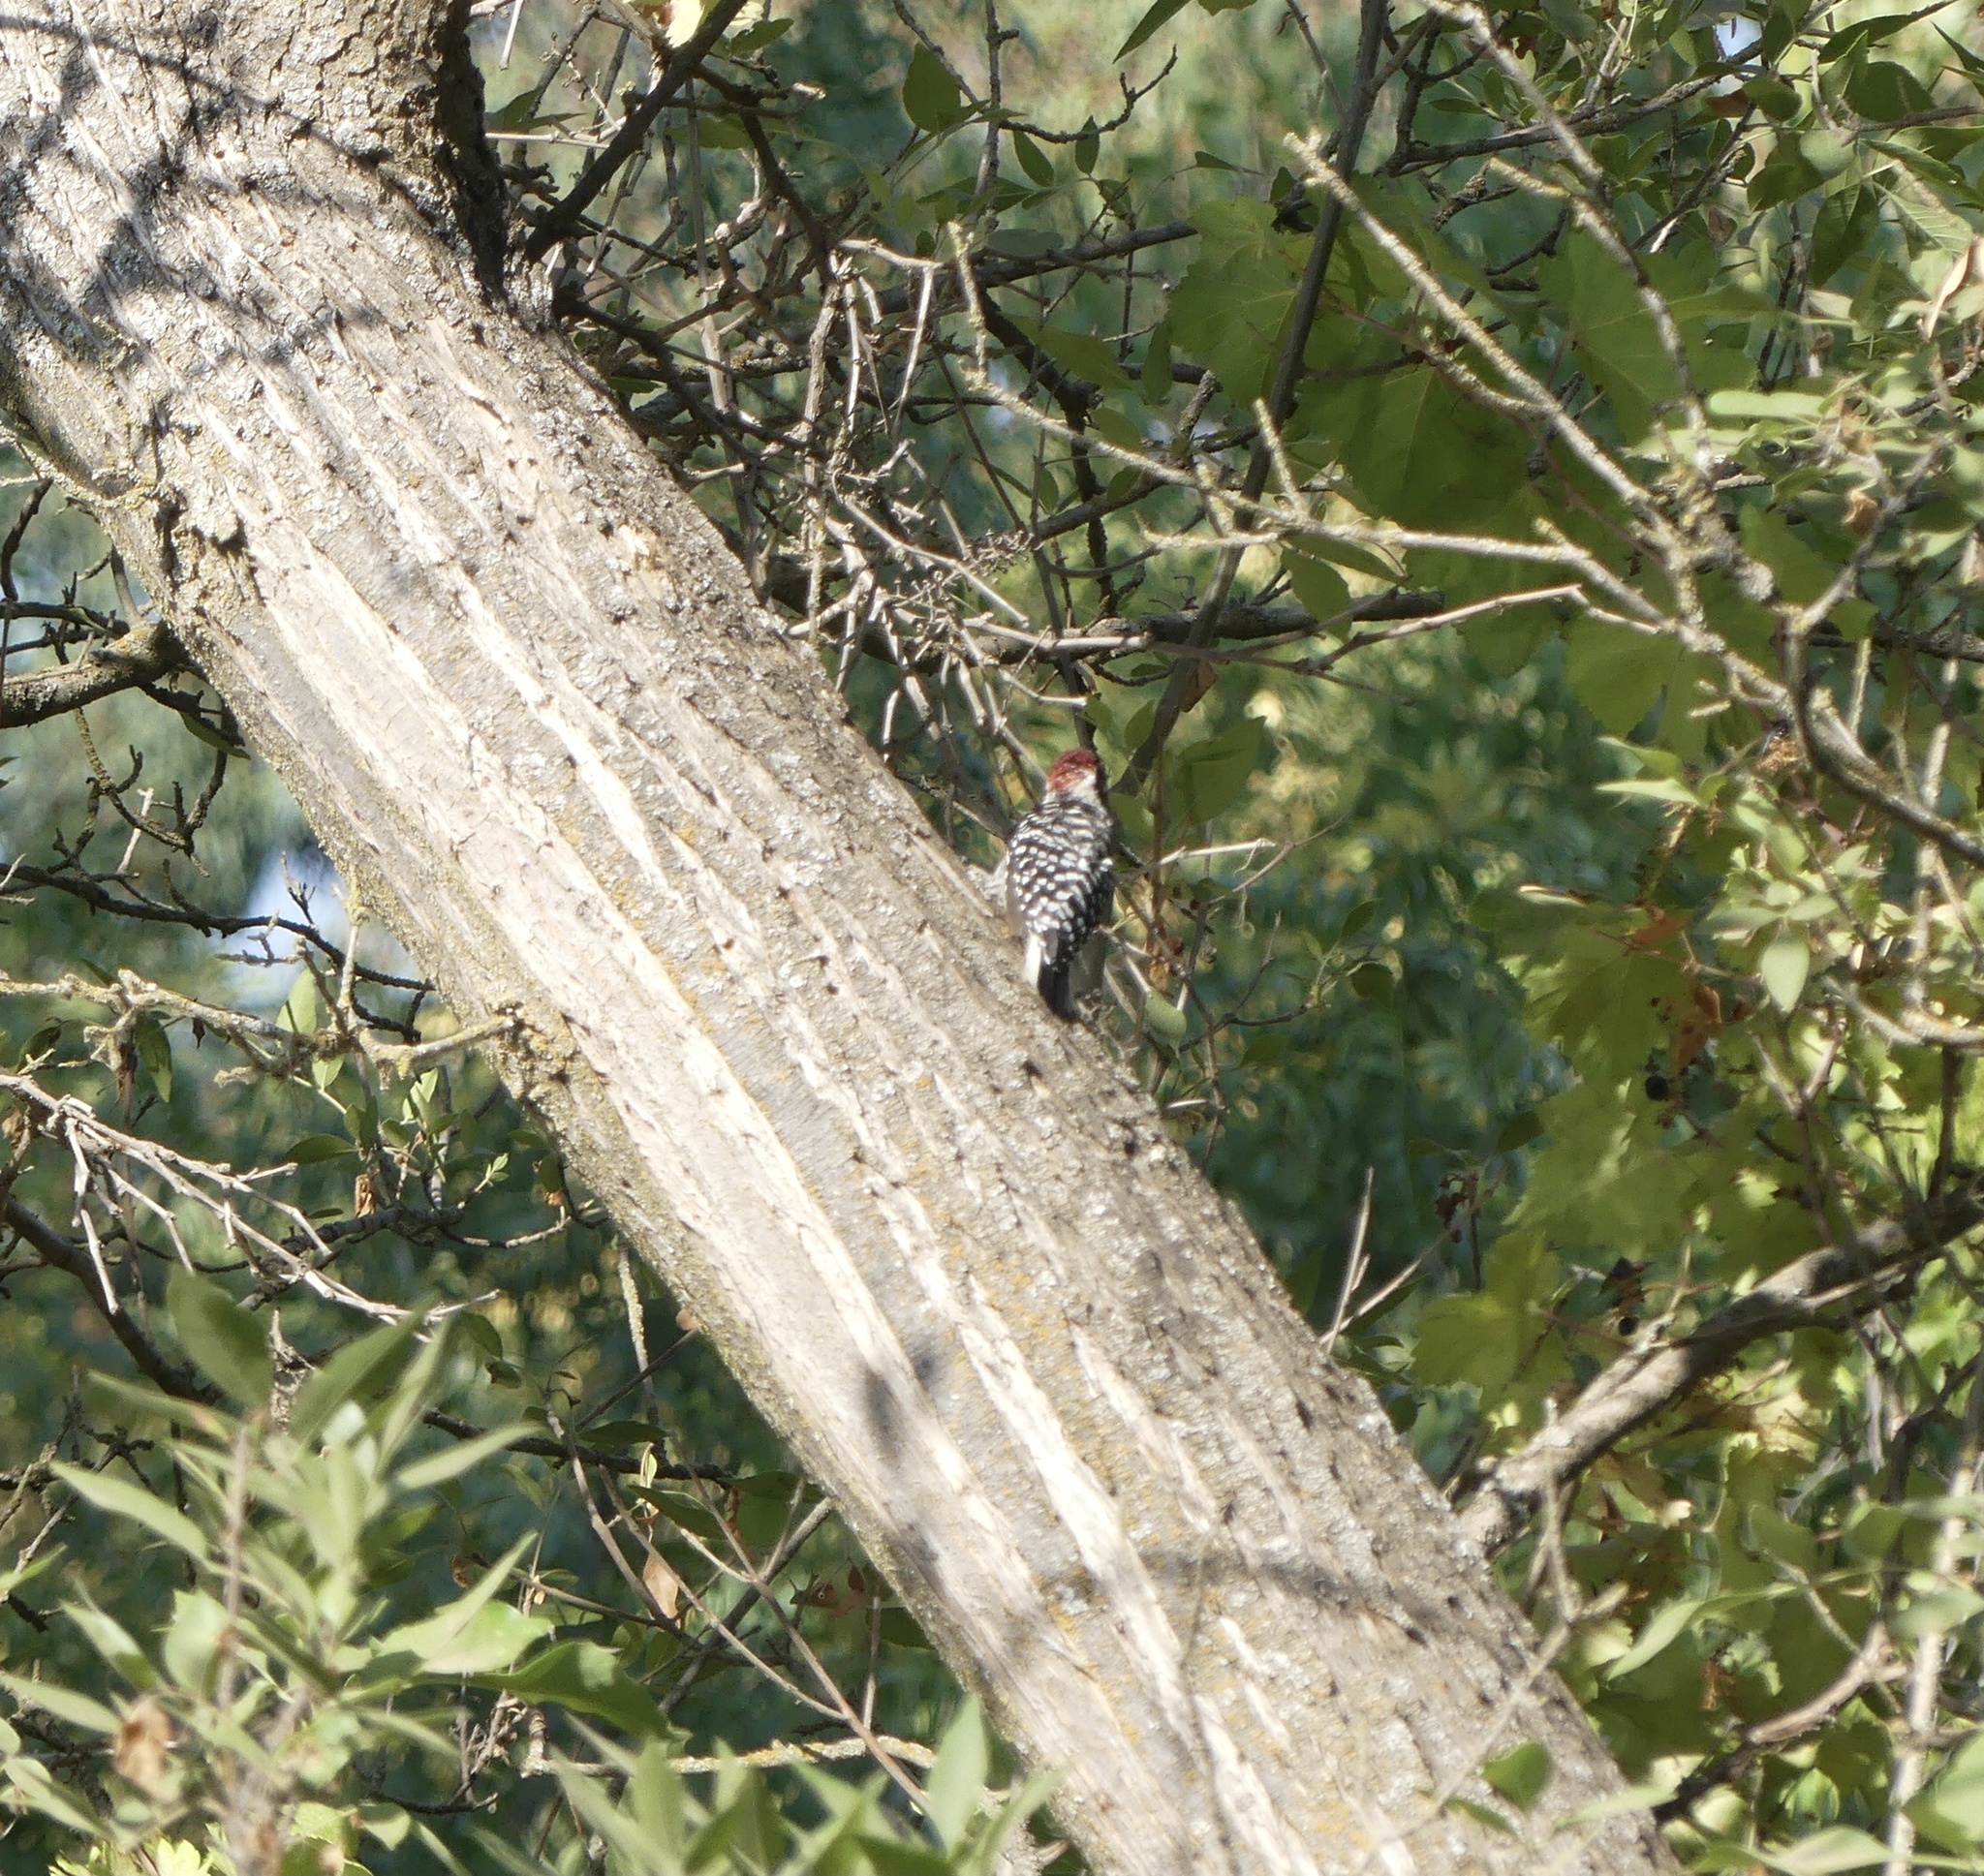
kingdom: Animalia
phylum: Chordata
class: Aves
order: Piciformes
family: Picidae
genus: Dryobates
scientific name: Dryobates nuttallii
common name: Nuttall's woodpecker
